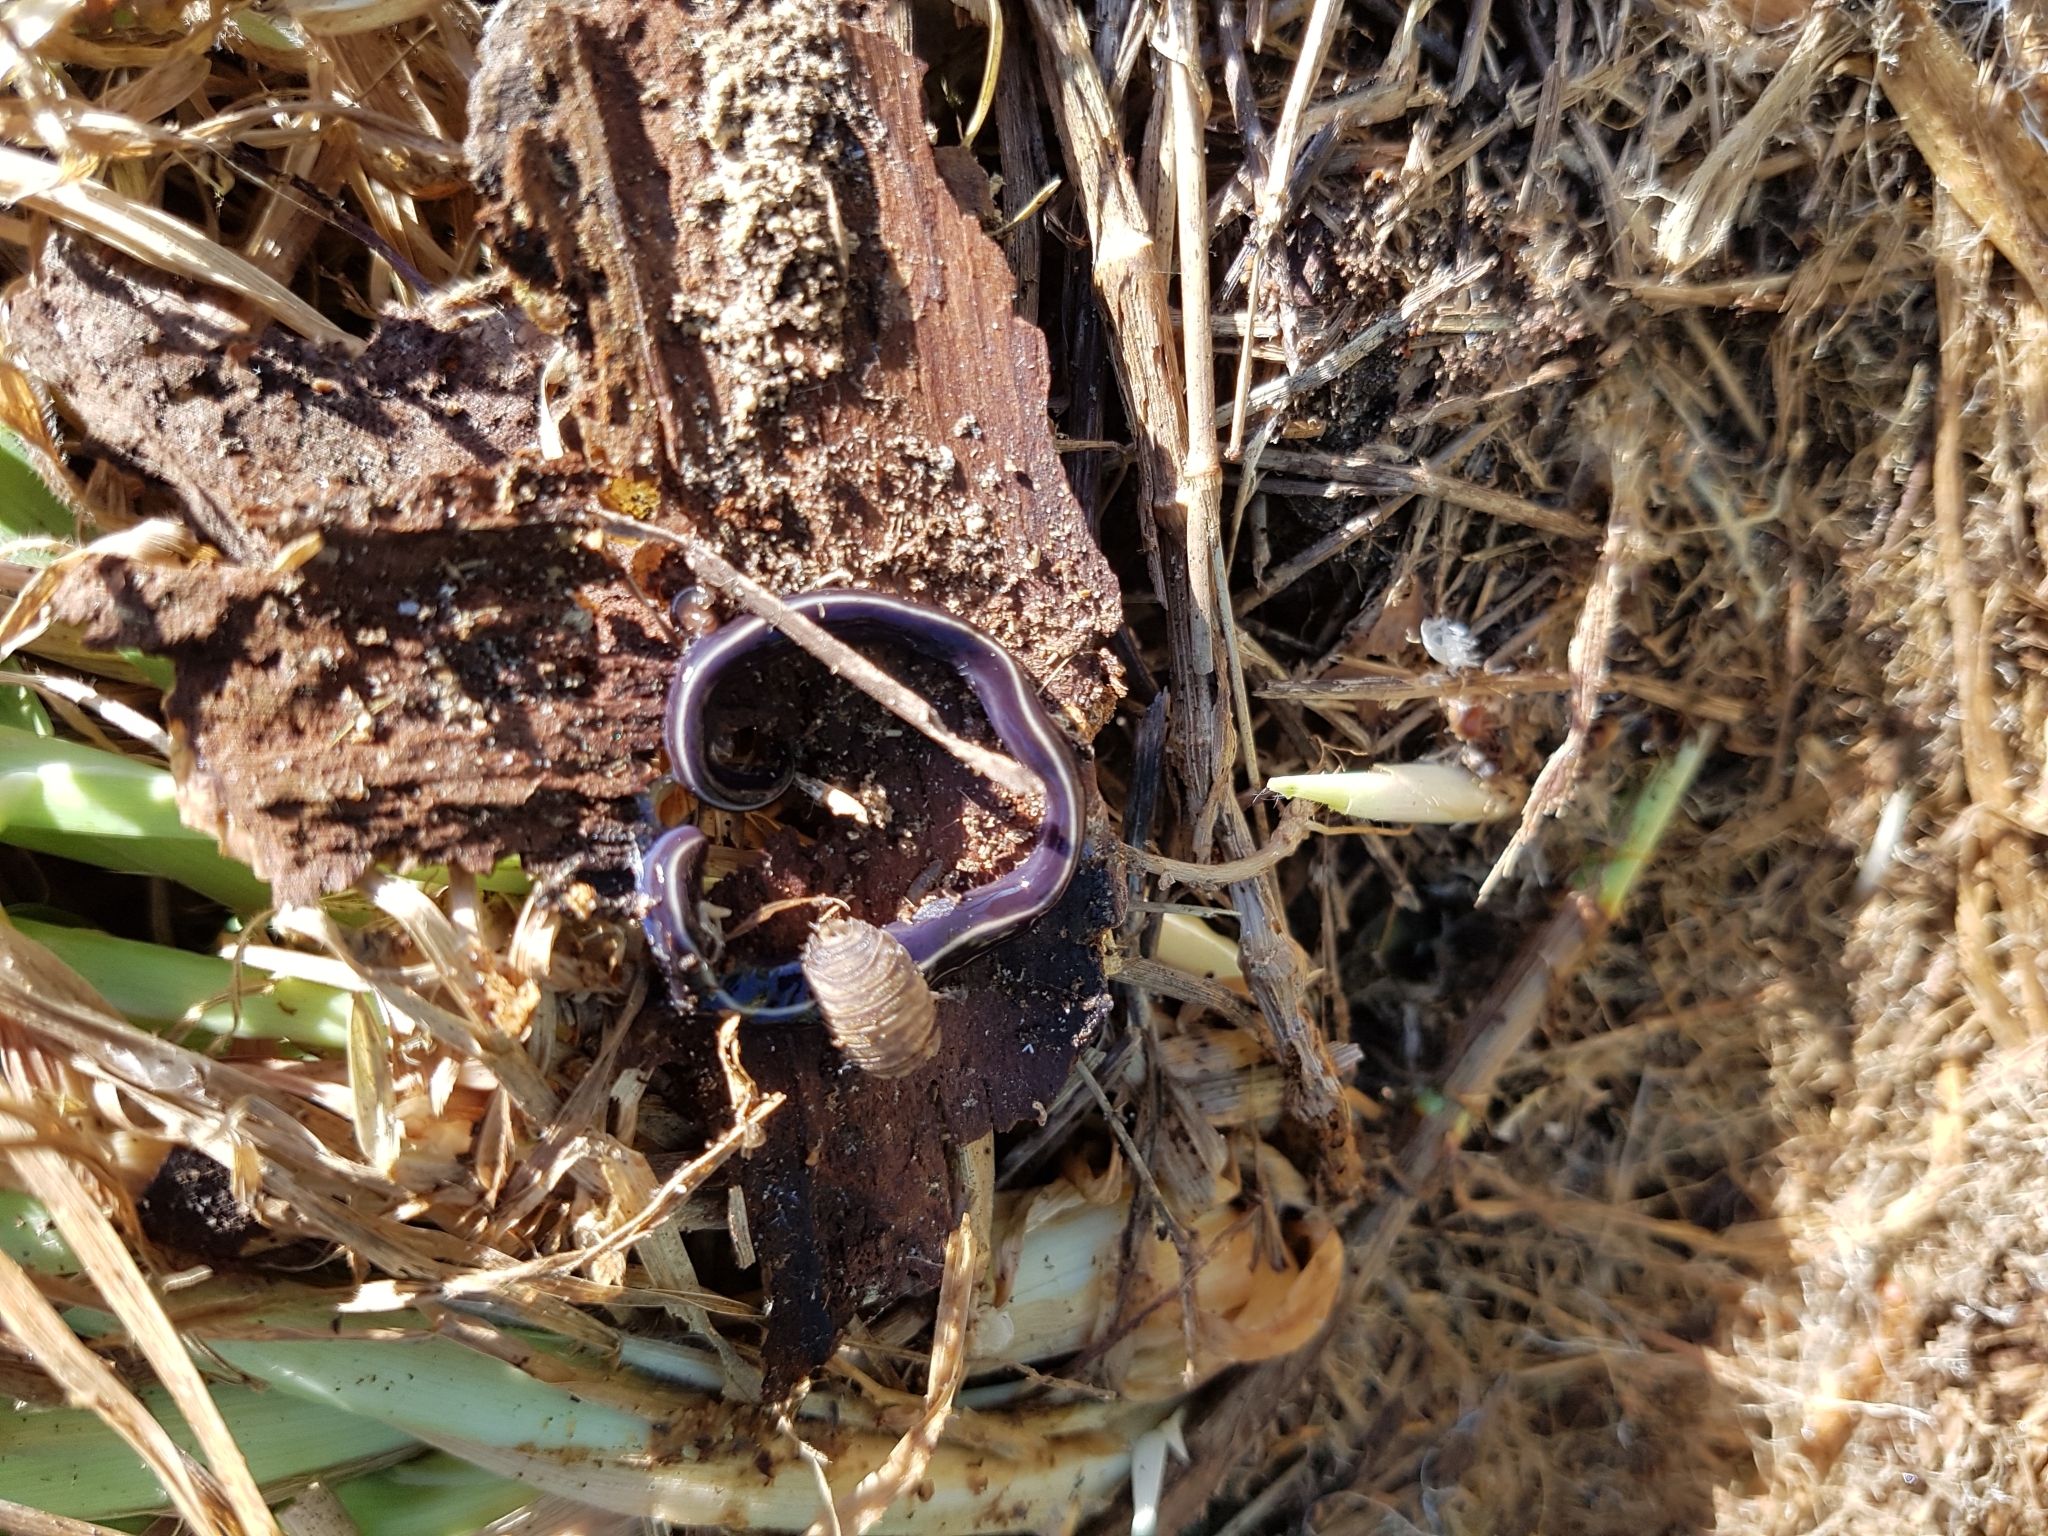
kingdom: Animalia
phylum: Platyhelminthes
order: Tricladida
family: Geoplanidae
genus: Caenoplana
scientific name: Caenoplana coerulea
